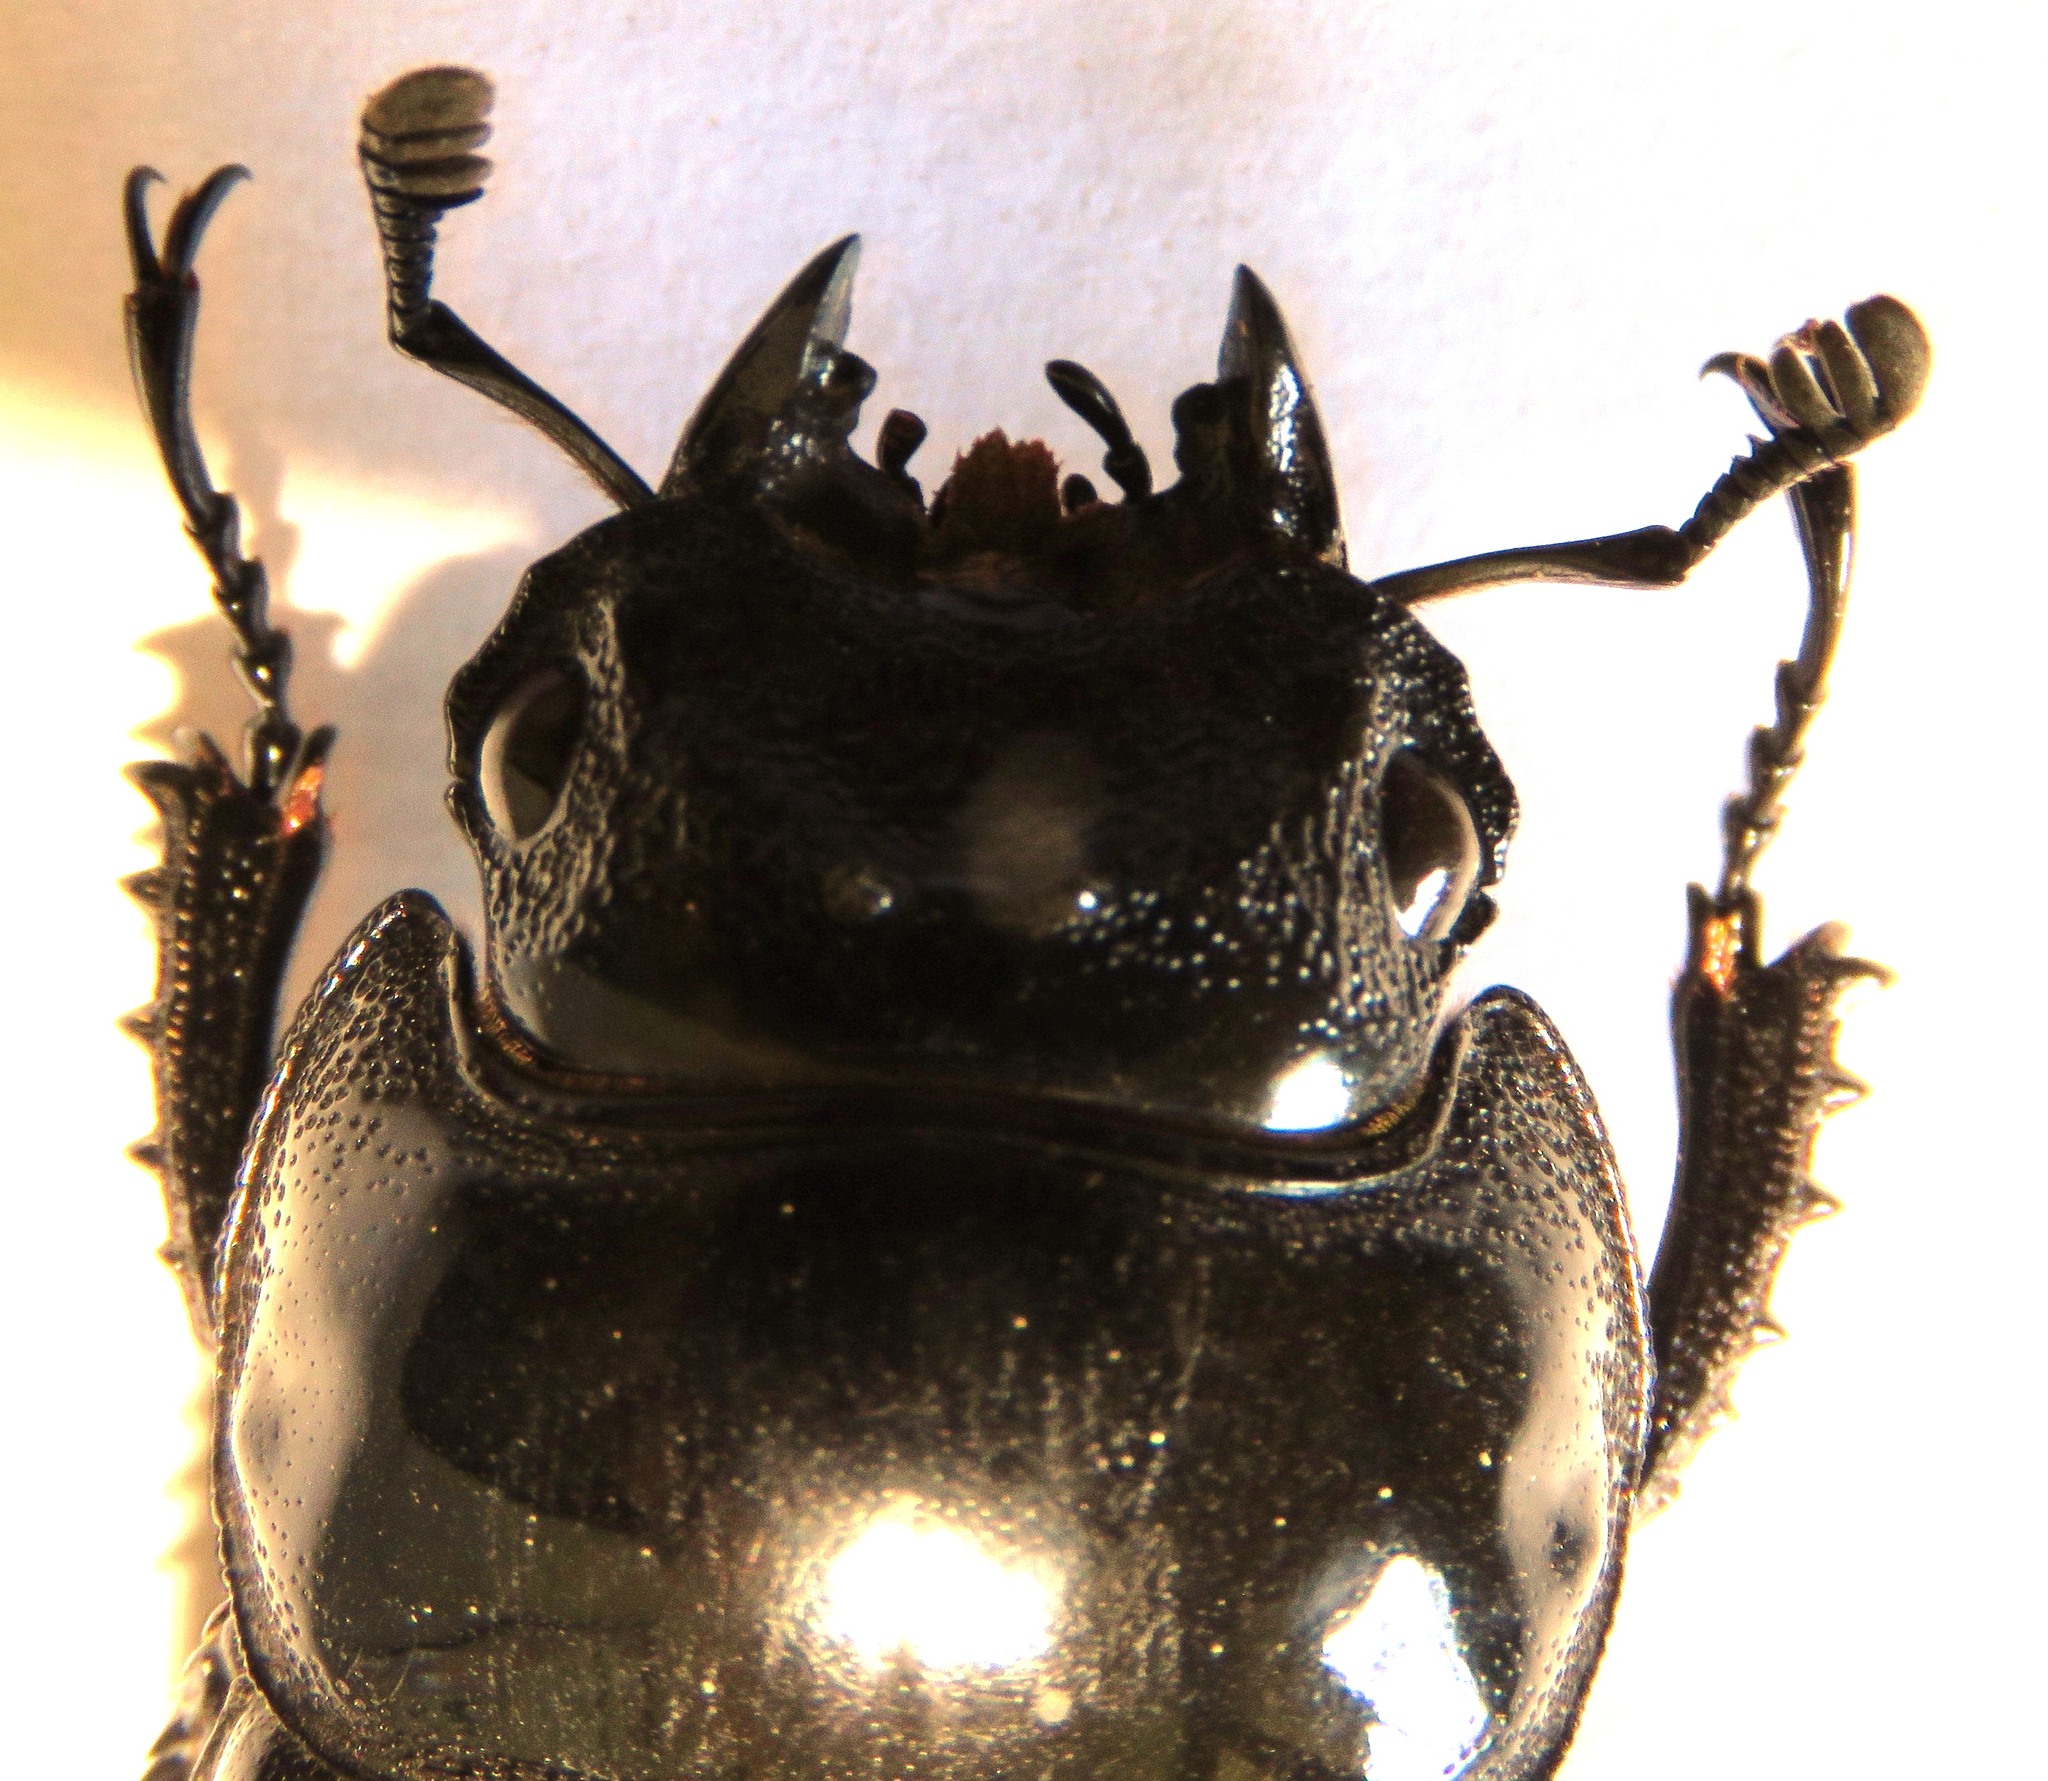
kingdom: Animalia
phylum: Arthropoda
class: Insecta
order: Coleoptera
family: Lucanidae
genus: Mesotopus
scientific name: Mesotopus imperator
